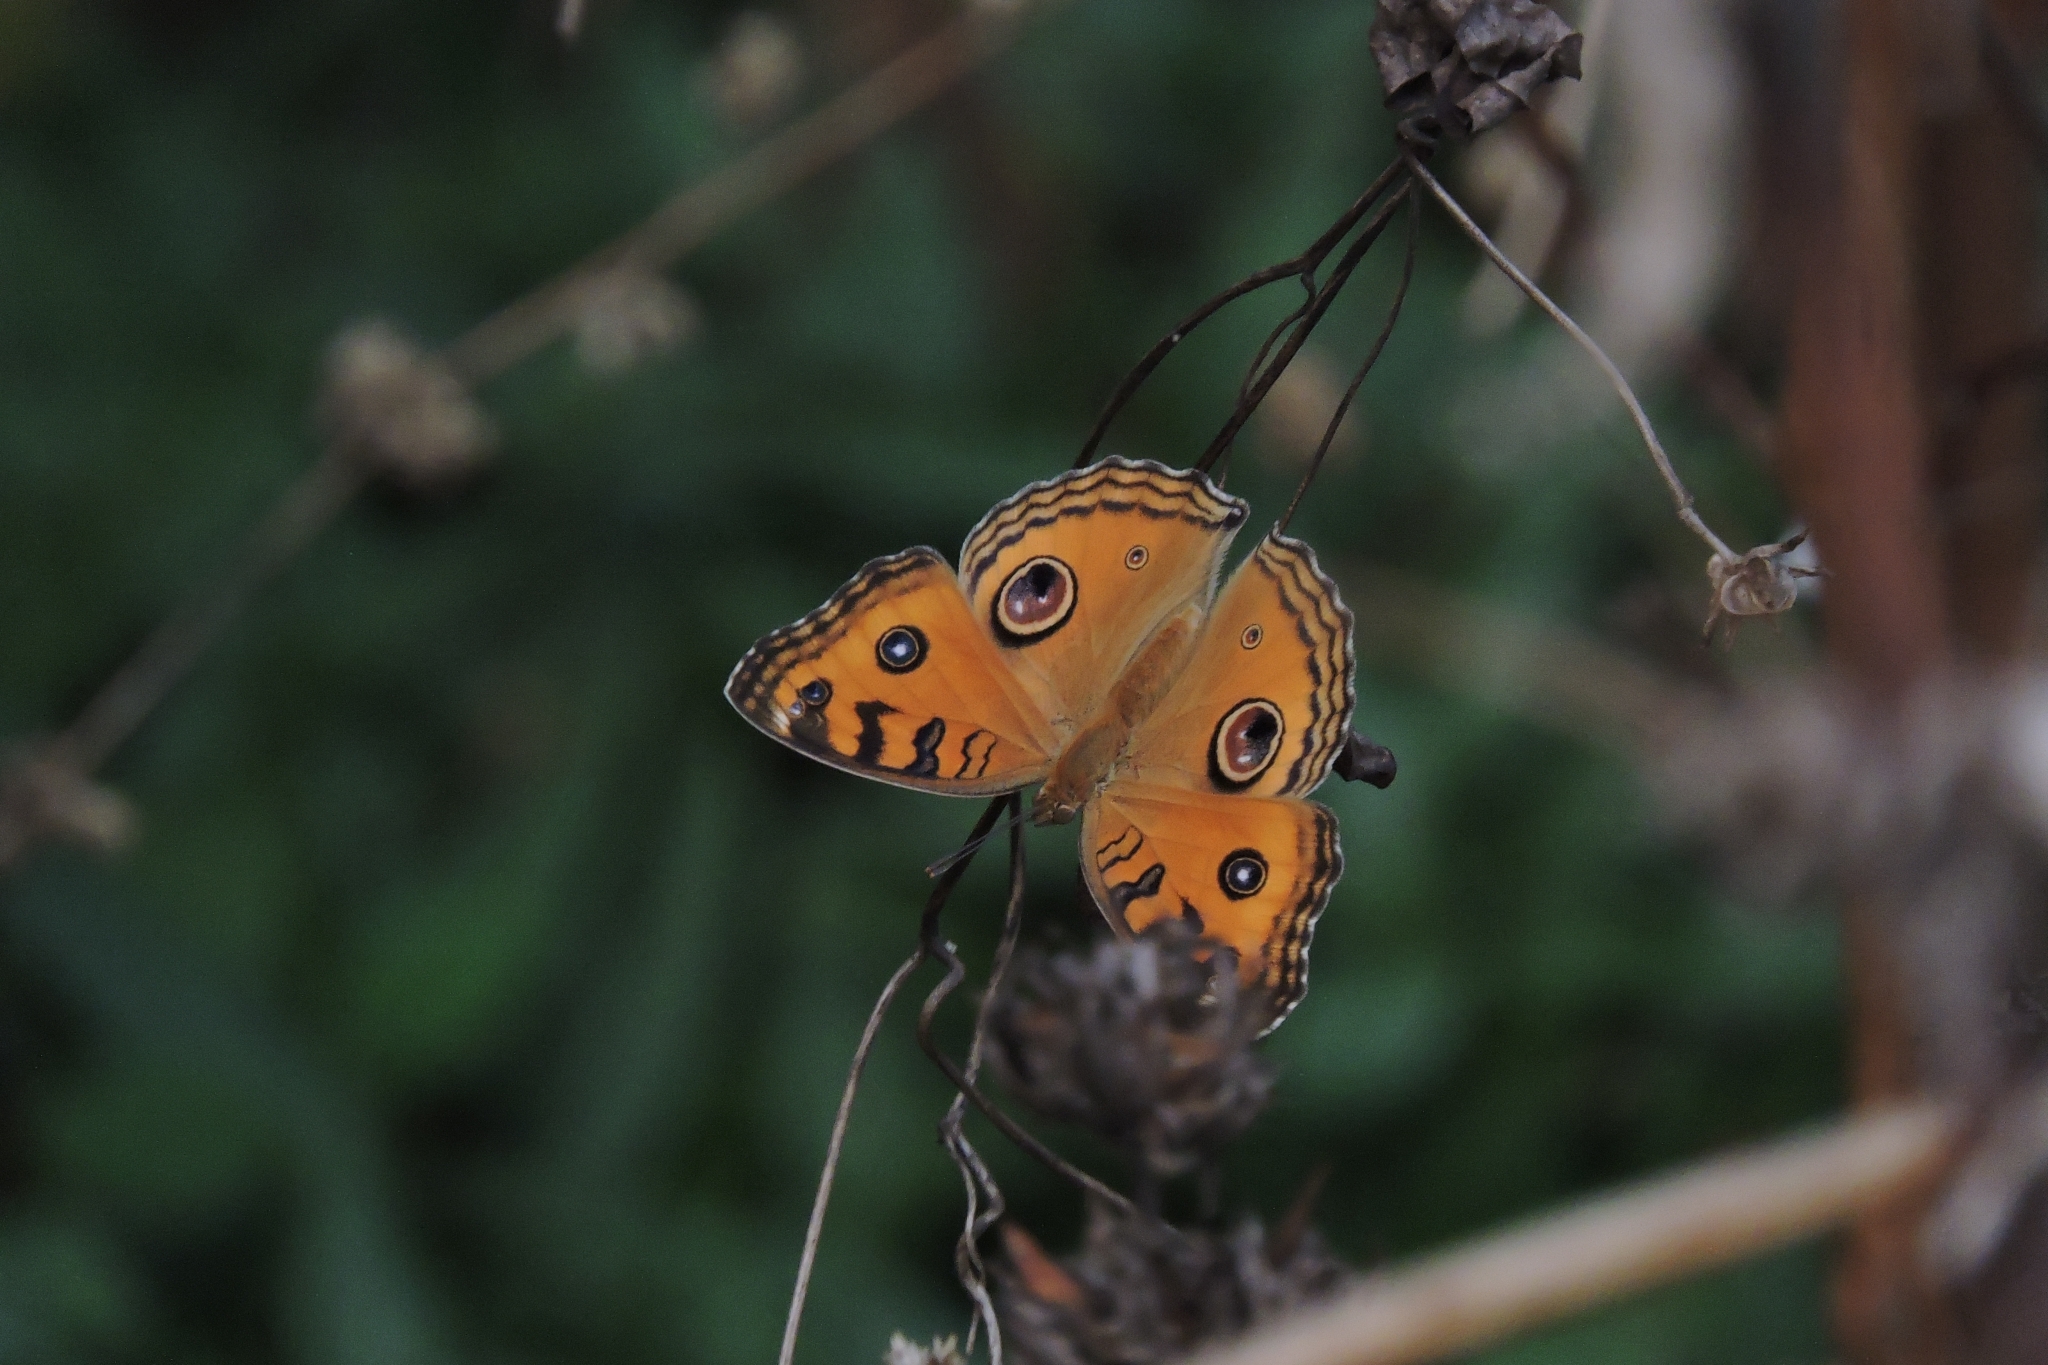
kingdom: Animalia
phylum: Arthropoda
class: Insecta
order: Lepidoptera
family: Nymphalidae
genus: Junonia
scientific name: Junonia almana
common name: Peacock pansy
